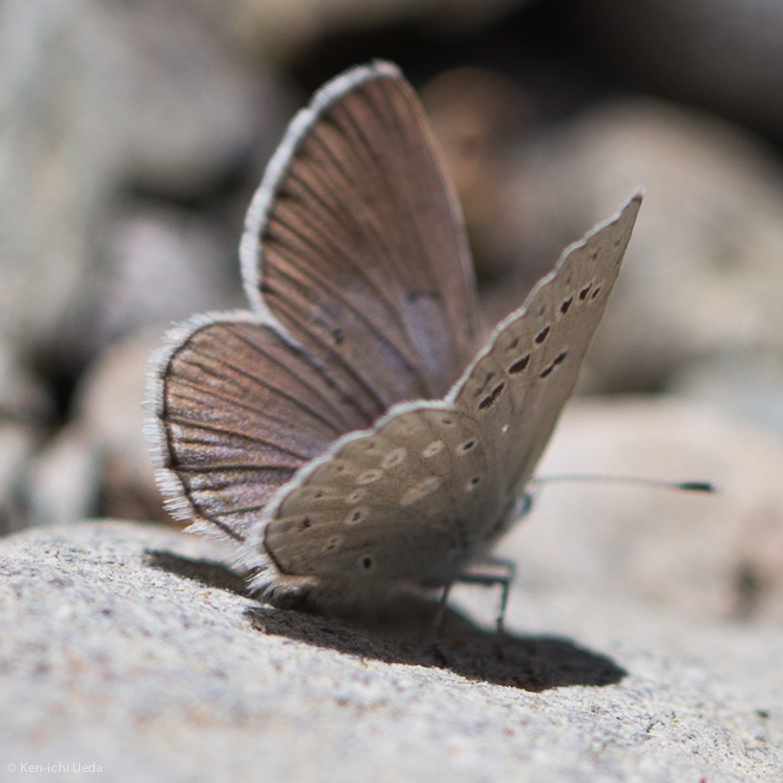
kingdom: Animalia
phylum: Arthropoda
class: Insecta
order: Lepidoptera
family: Lycaenidae
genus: Icaricia
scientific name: Icaricia icarioides
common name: Boisduval's blue
